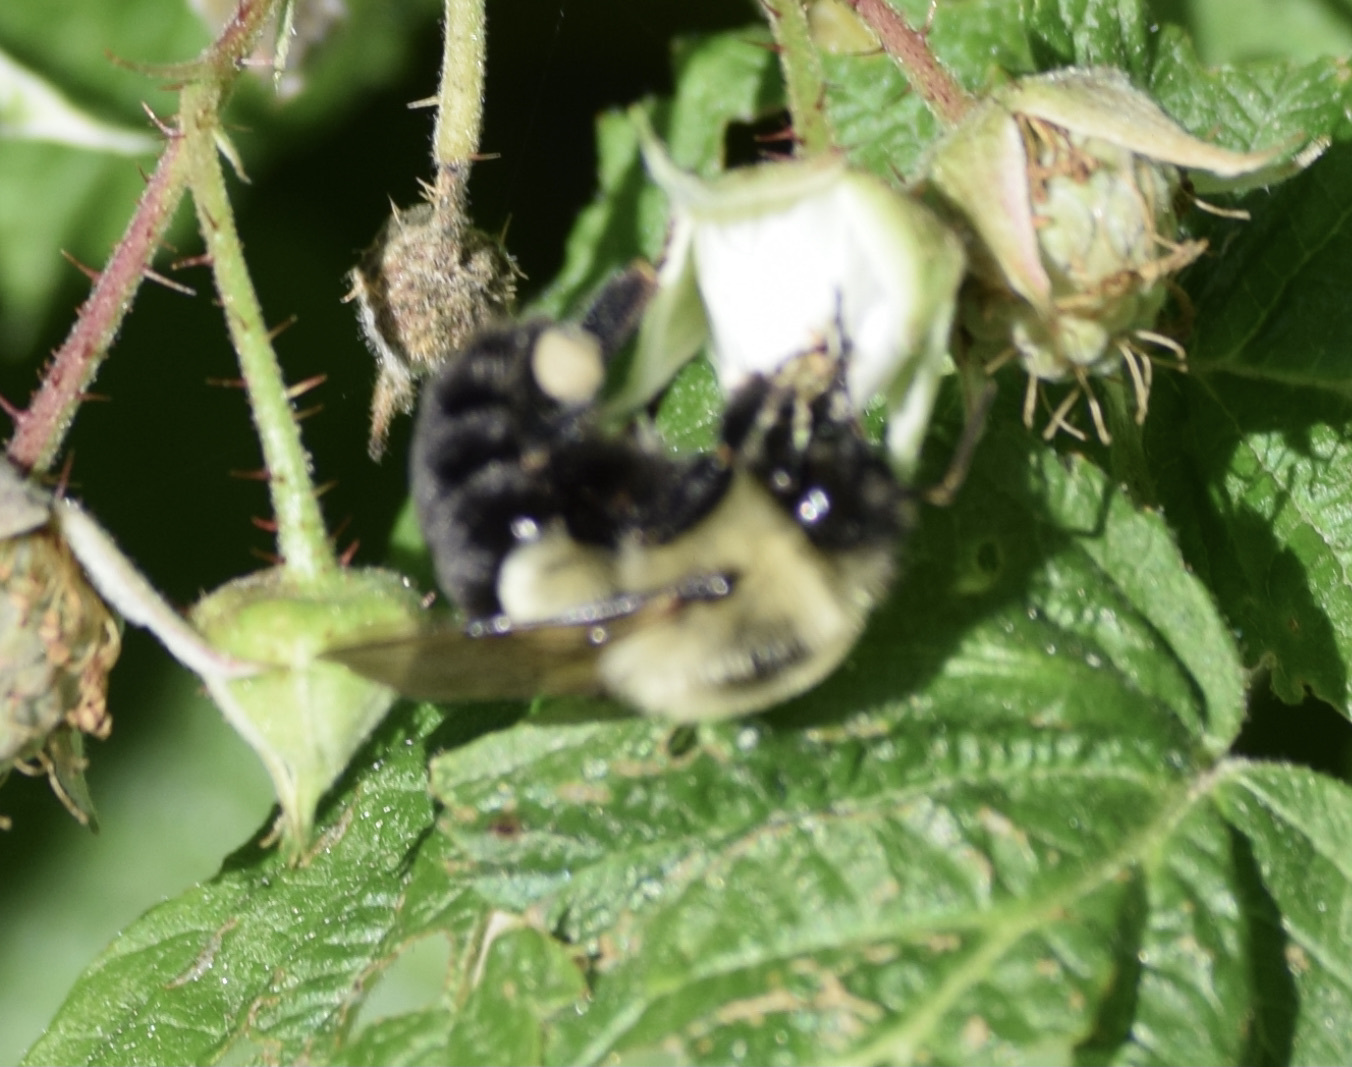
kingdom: Animalia
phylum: Arthropoda
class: Insecta
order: Hymenoptera
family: Apidae
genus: Bombus
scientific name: Bombus impatiens
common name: Common eastern bumble bee
